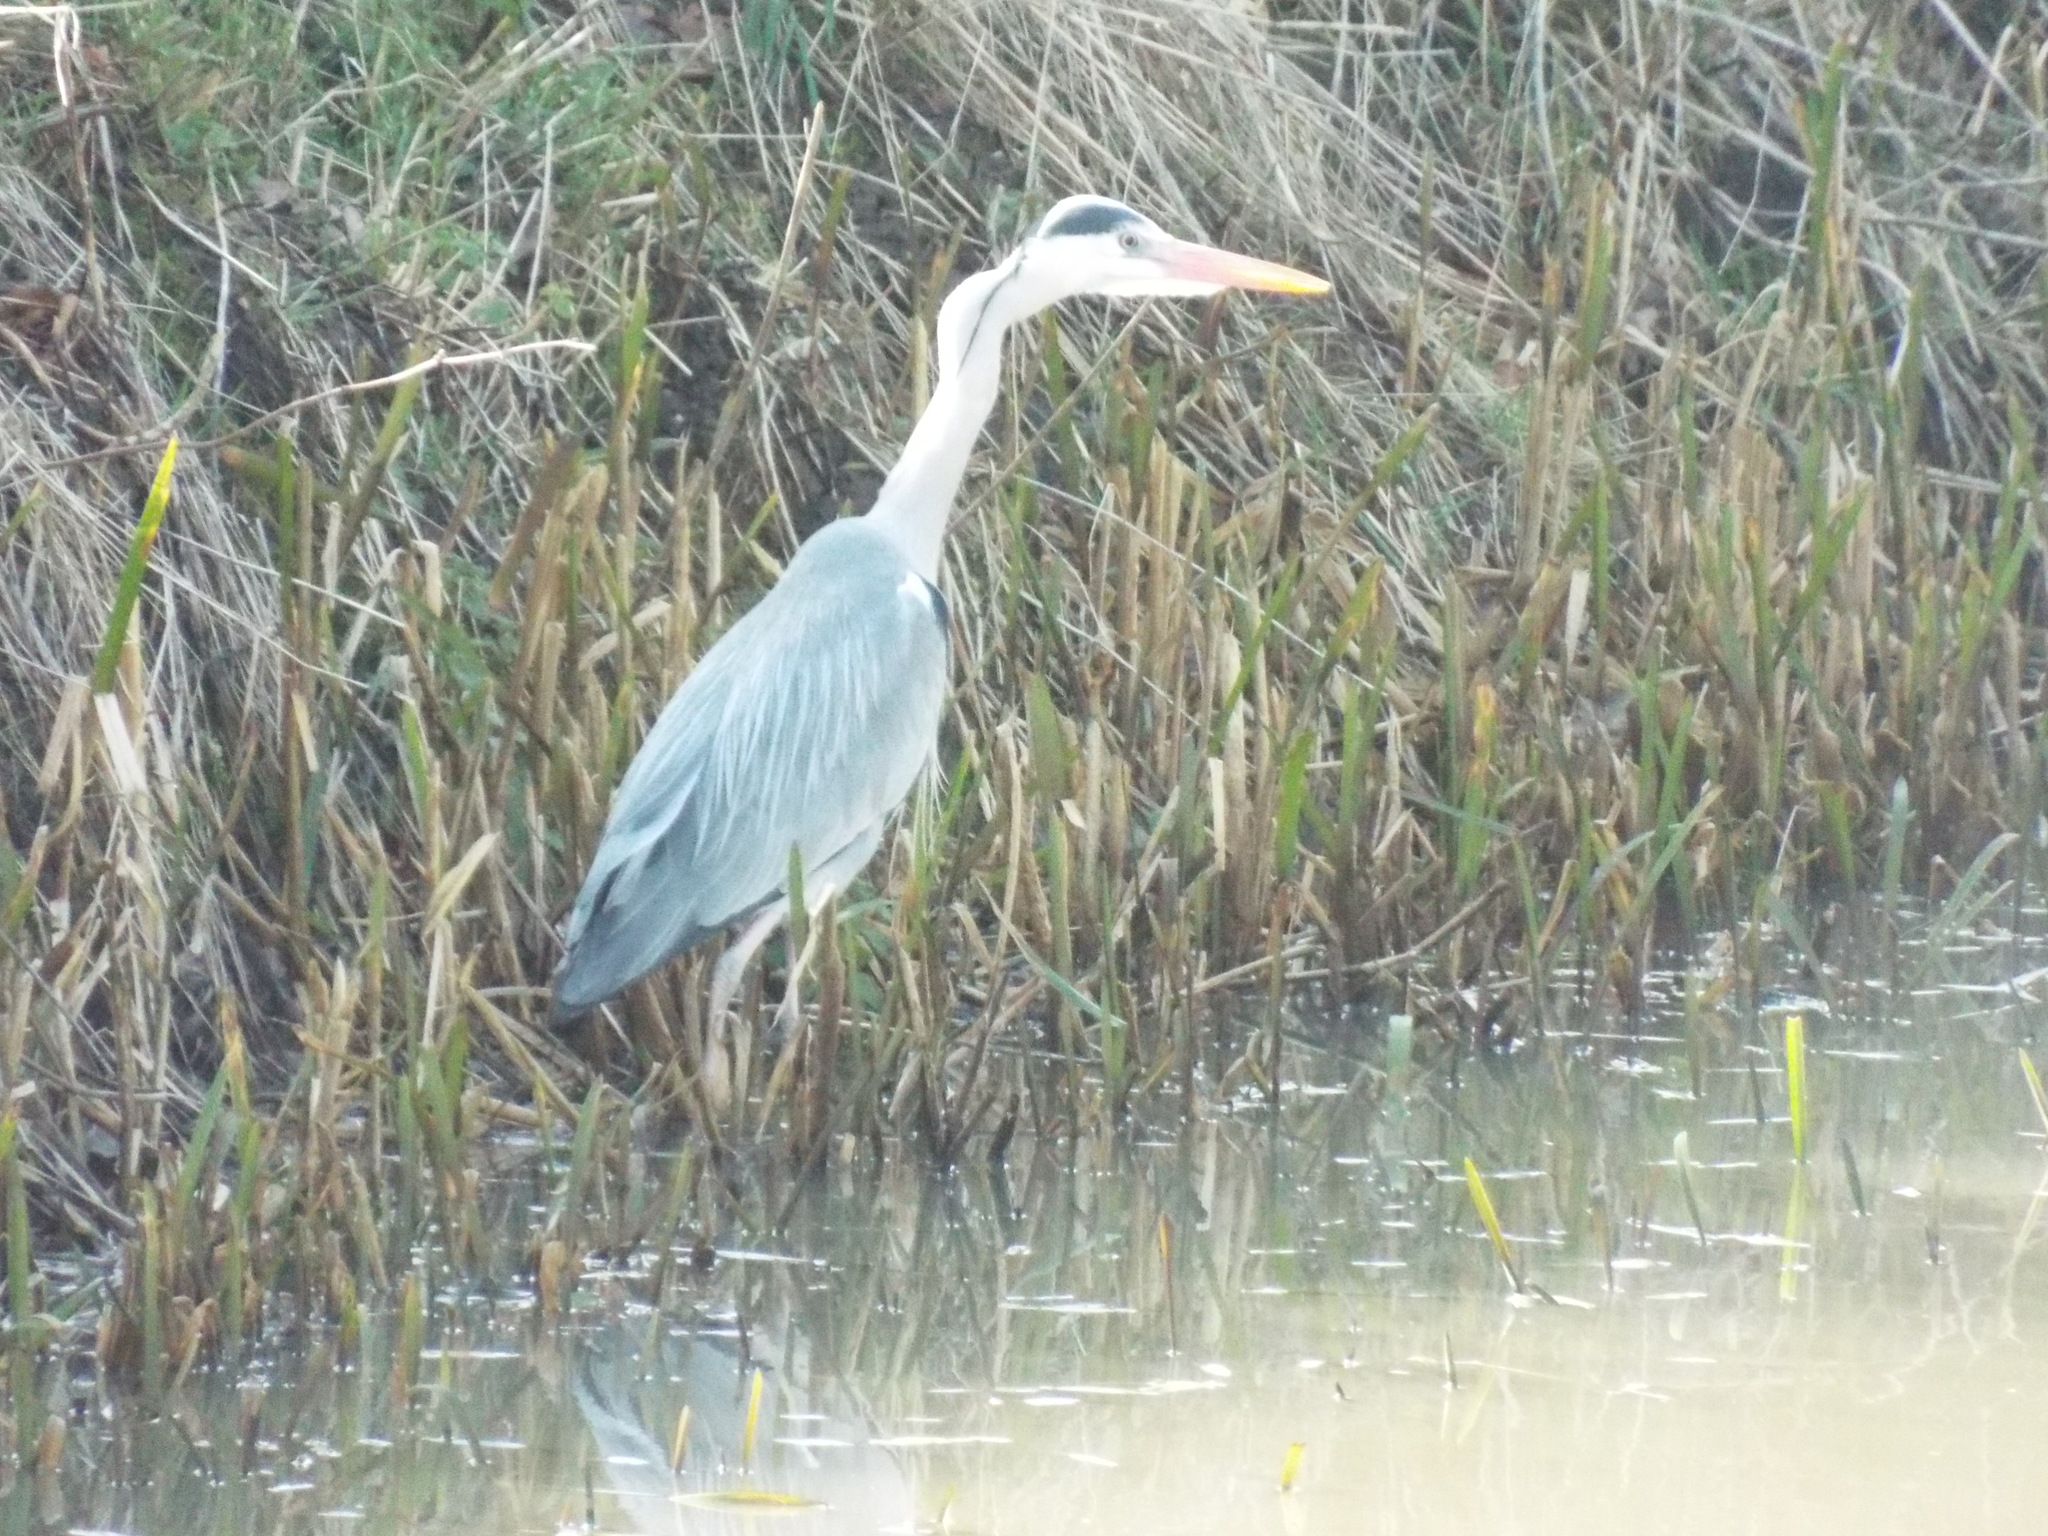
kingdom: Animalia
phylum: Chordata
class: Aves
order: Pelecaniformes
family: Ardeidae
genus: Ardea
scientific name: Ardea cinerea
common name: Grey heron
